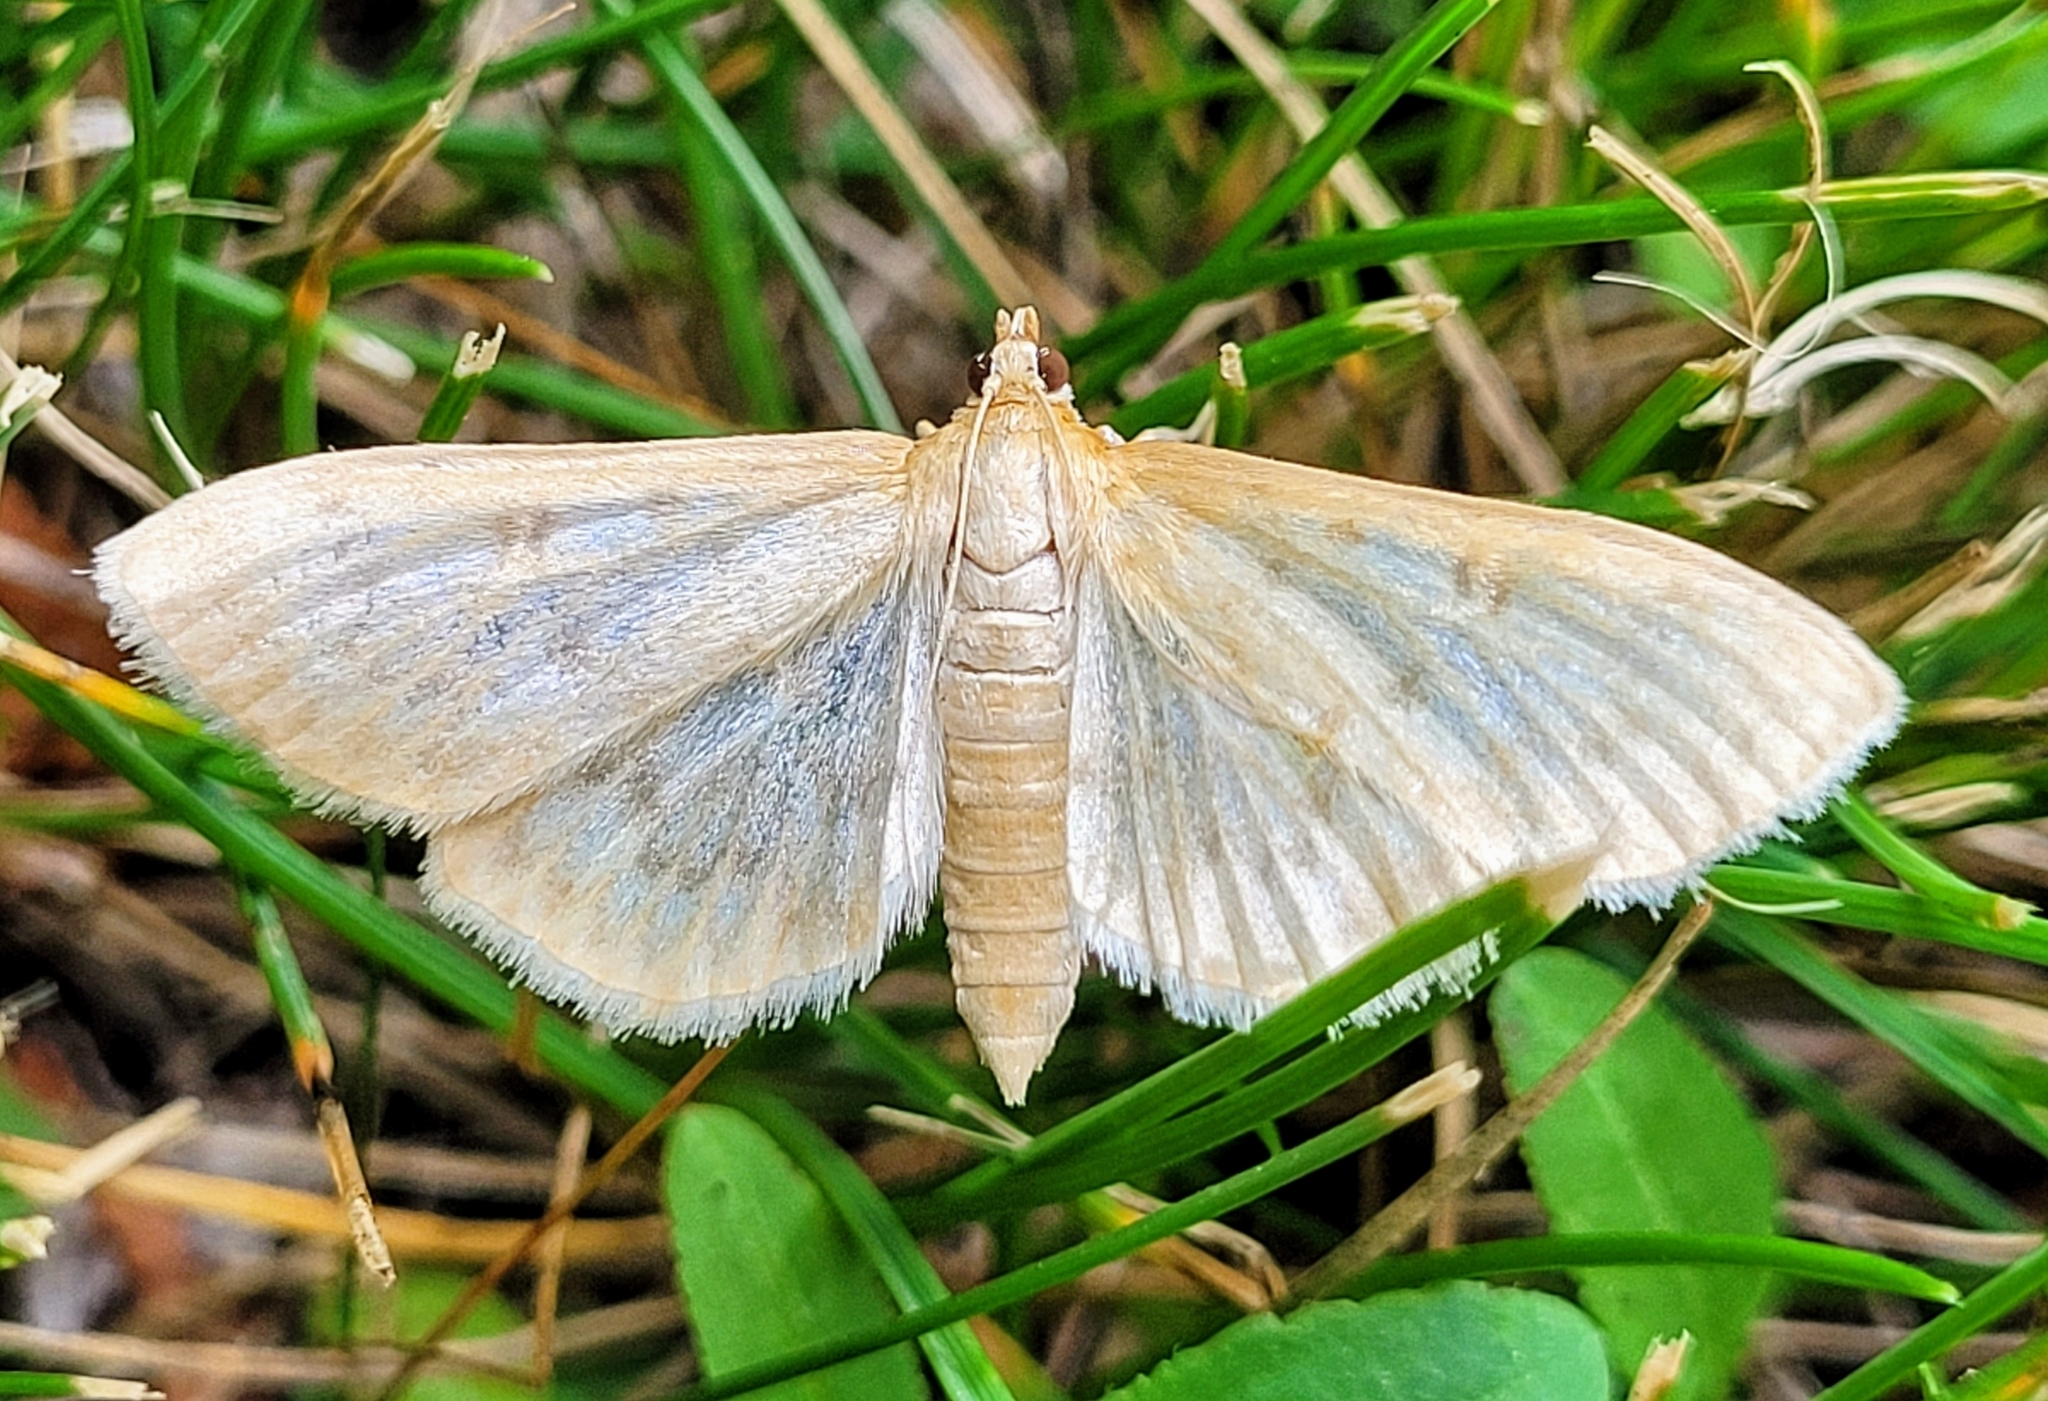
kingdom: Animalia
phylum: Arthropoda
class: Insecta
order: Lepidoptera
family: Crambidae
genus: Mecyna
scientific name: Mecyna submedialis
